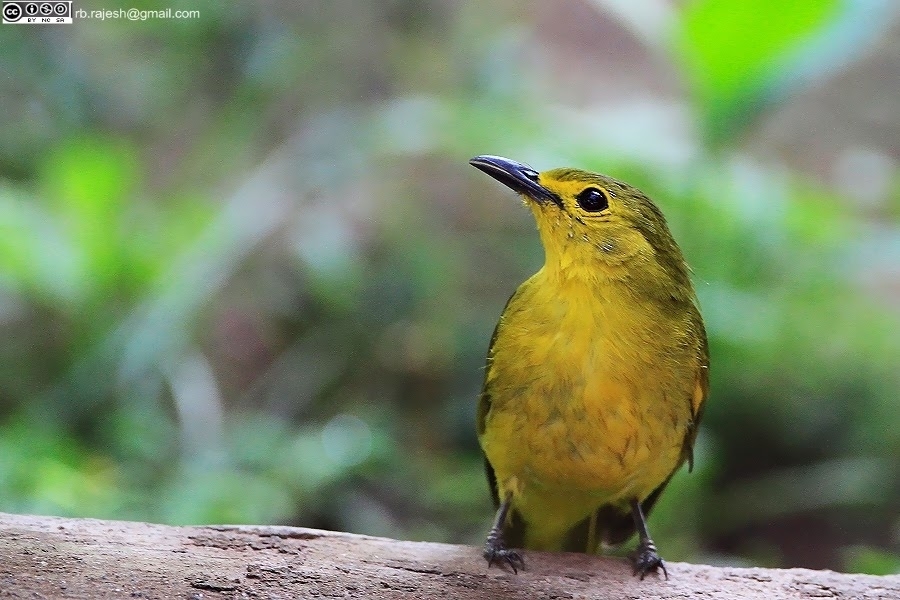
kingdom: Animalia
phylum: Chordata
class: Aves
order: Passeriformes
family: Pycnonotidae
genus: Acritillas
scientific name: Acritillas indica
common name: Yellow-browed bulbul
